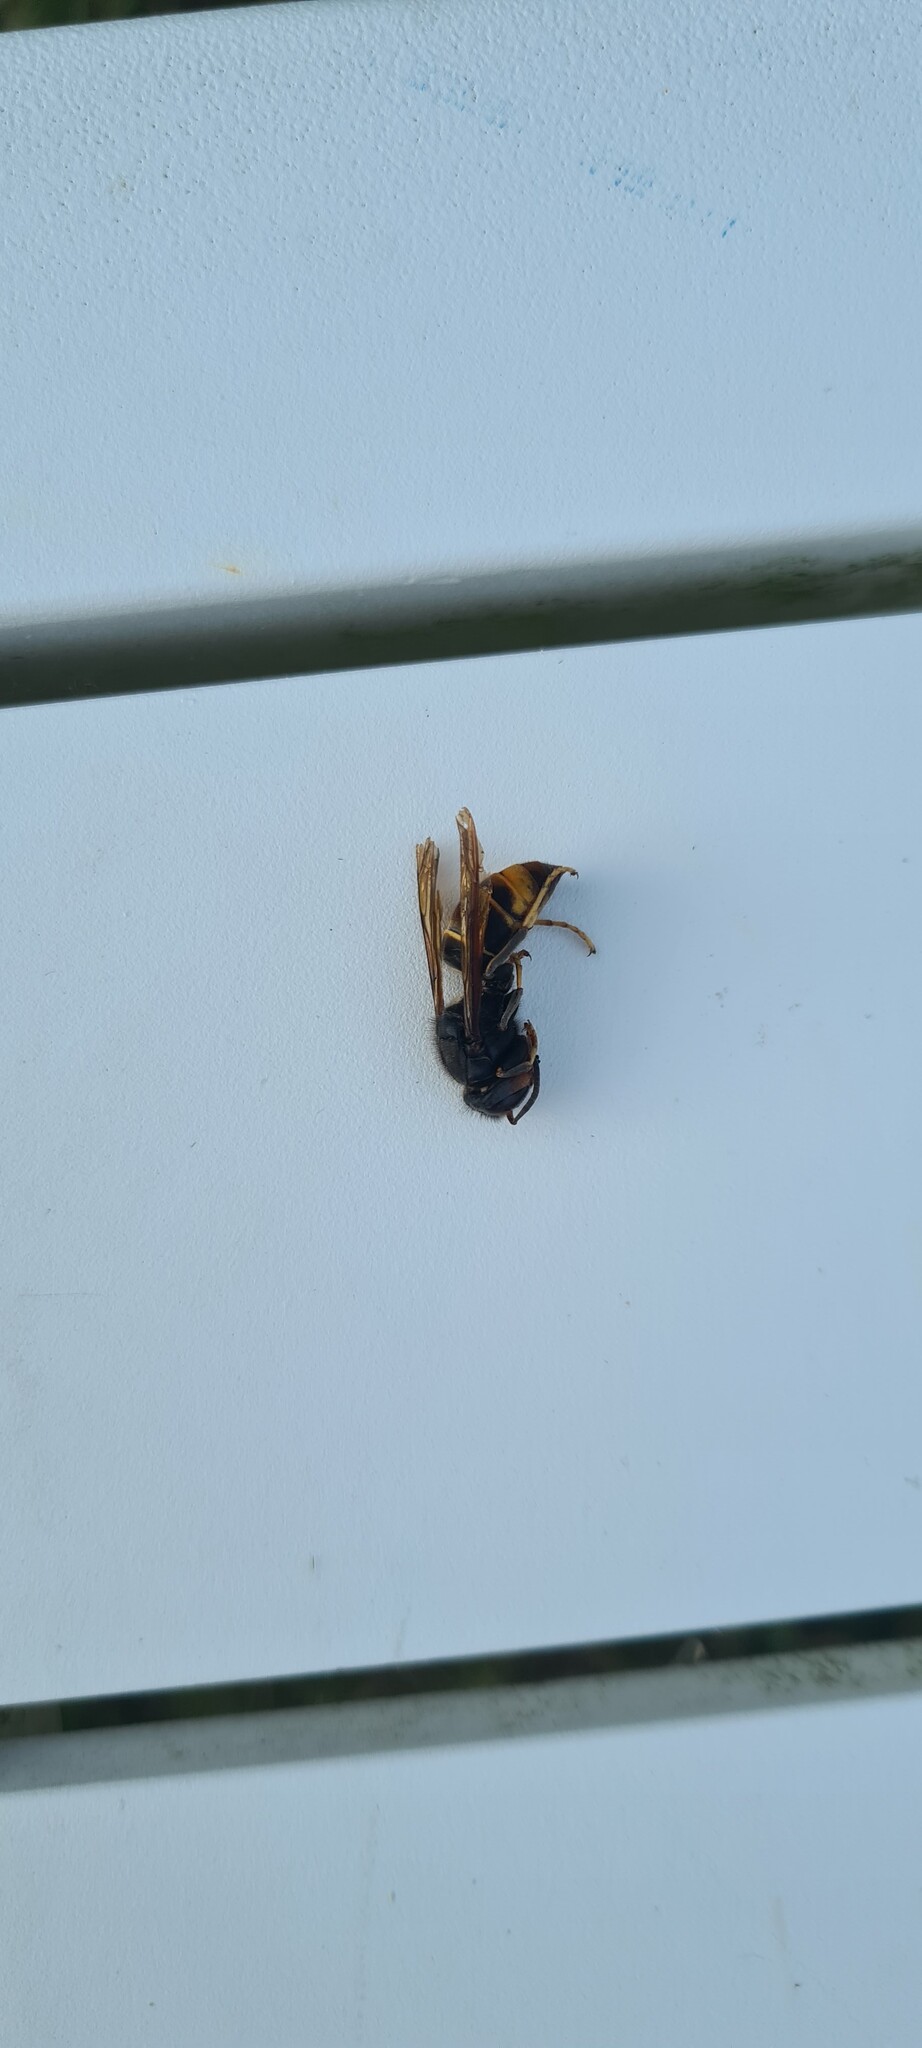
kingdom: Animalia
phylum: Arthropoda
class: Insecta
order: Hymenoptera
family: Vespidae
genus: Vespa
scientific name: Vespa velutina
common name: Asian hornet
